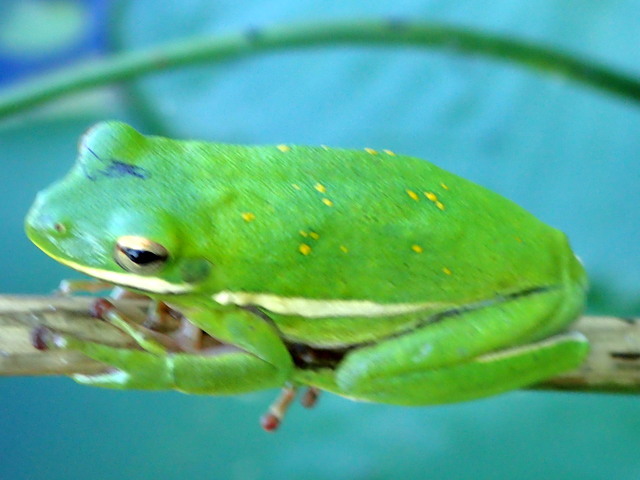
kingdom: Animalia
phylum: Chordata
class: Amphibia
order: Anura
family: Hylidae
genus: Dryophytes
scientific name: Dryophytes cinereus
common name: Green treefrog
